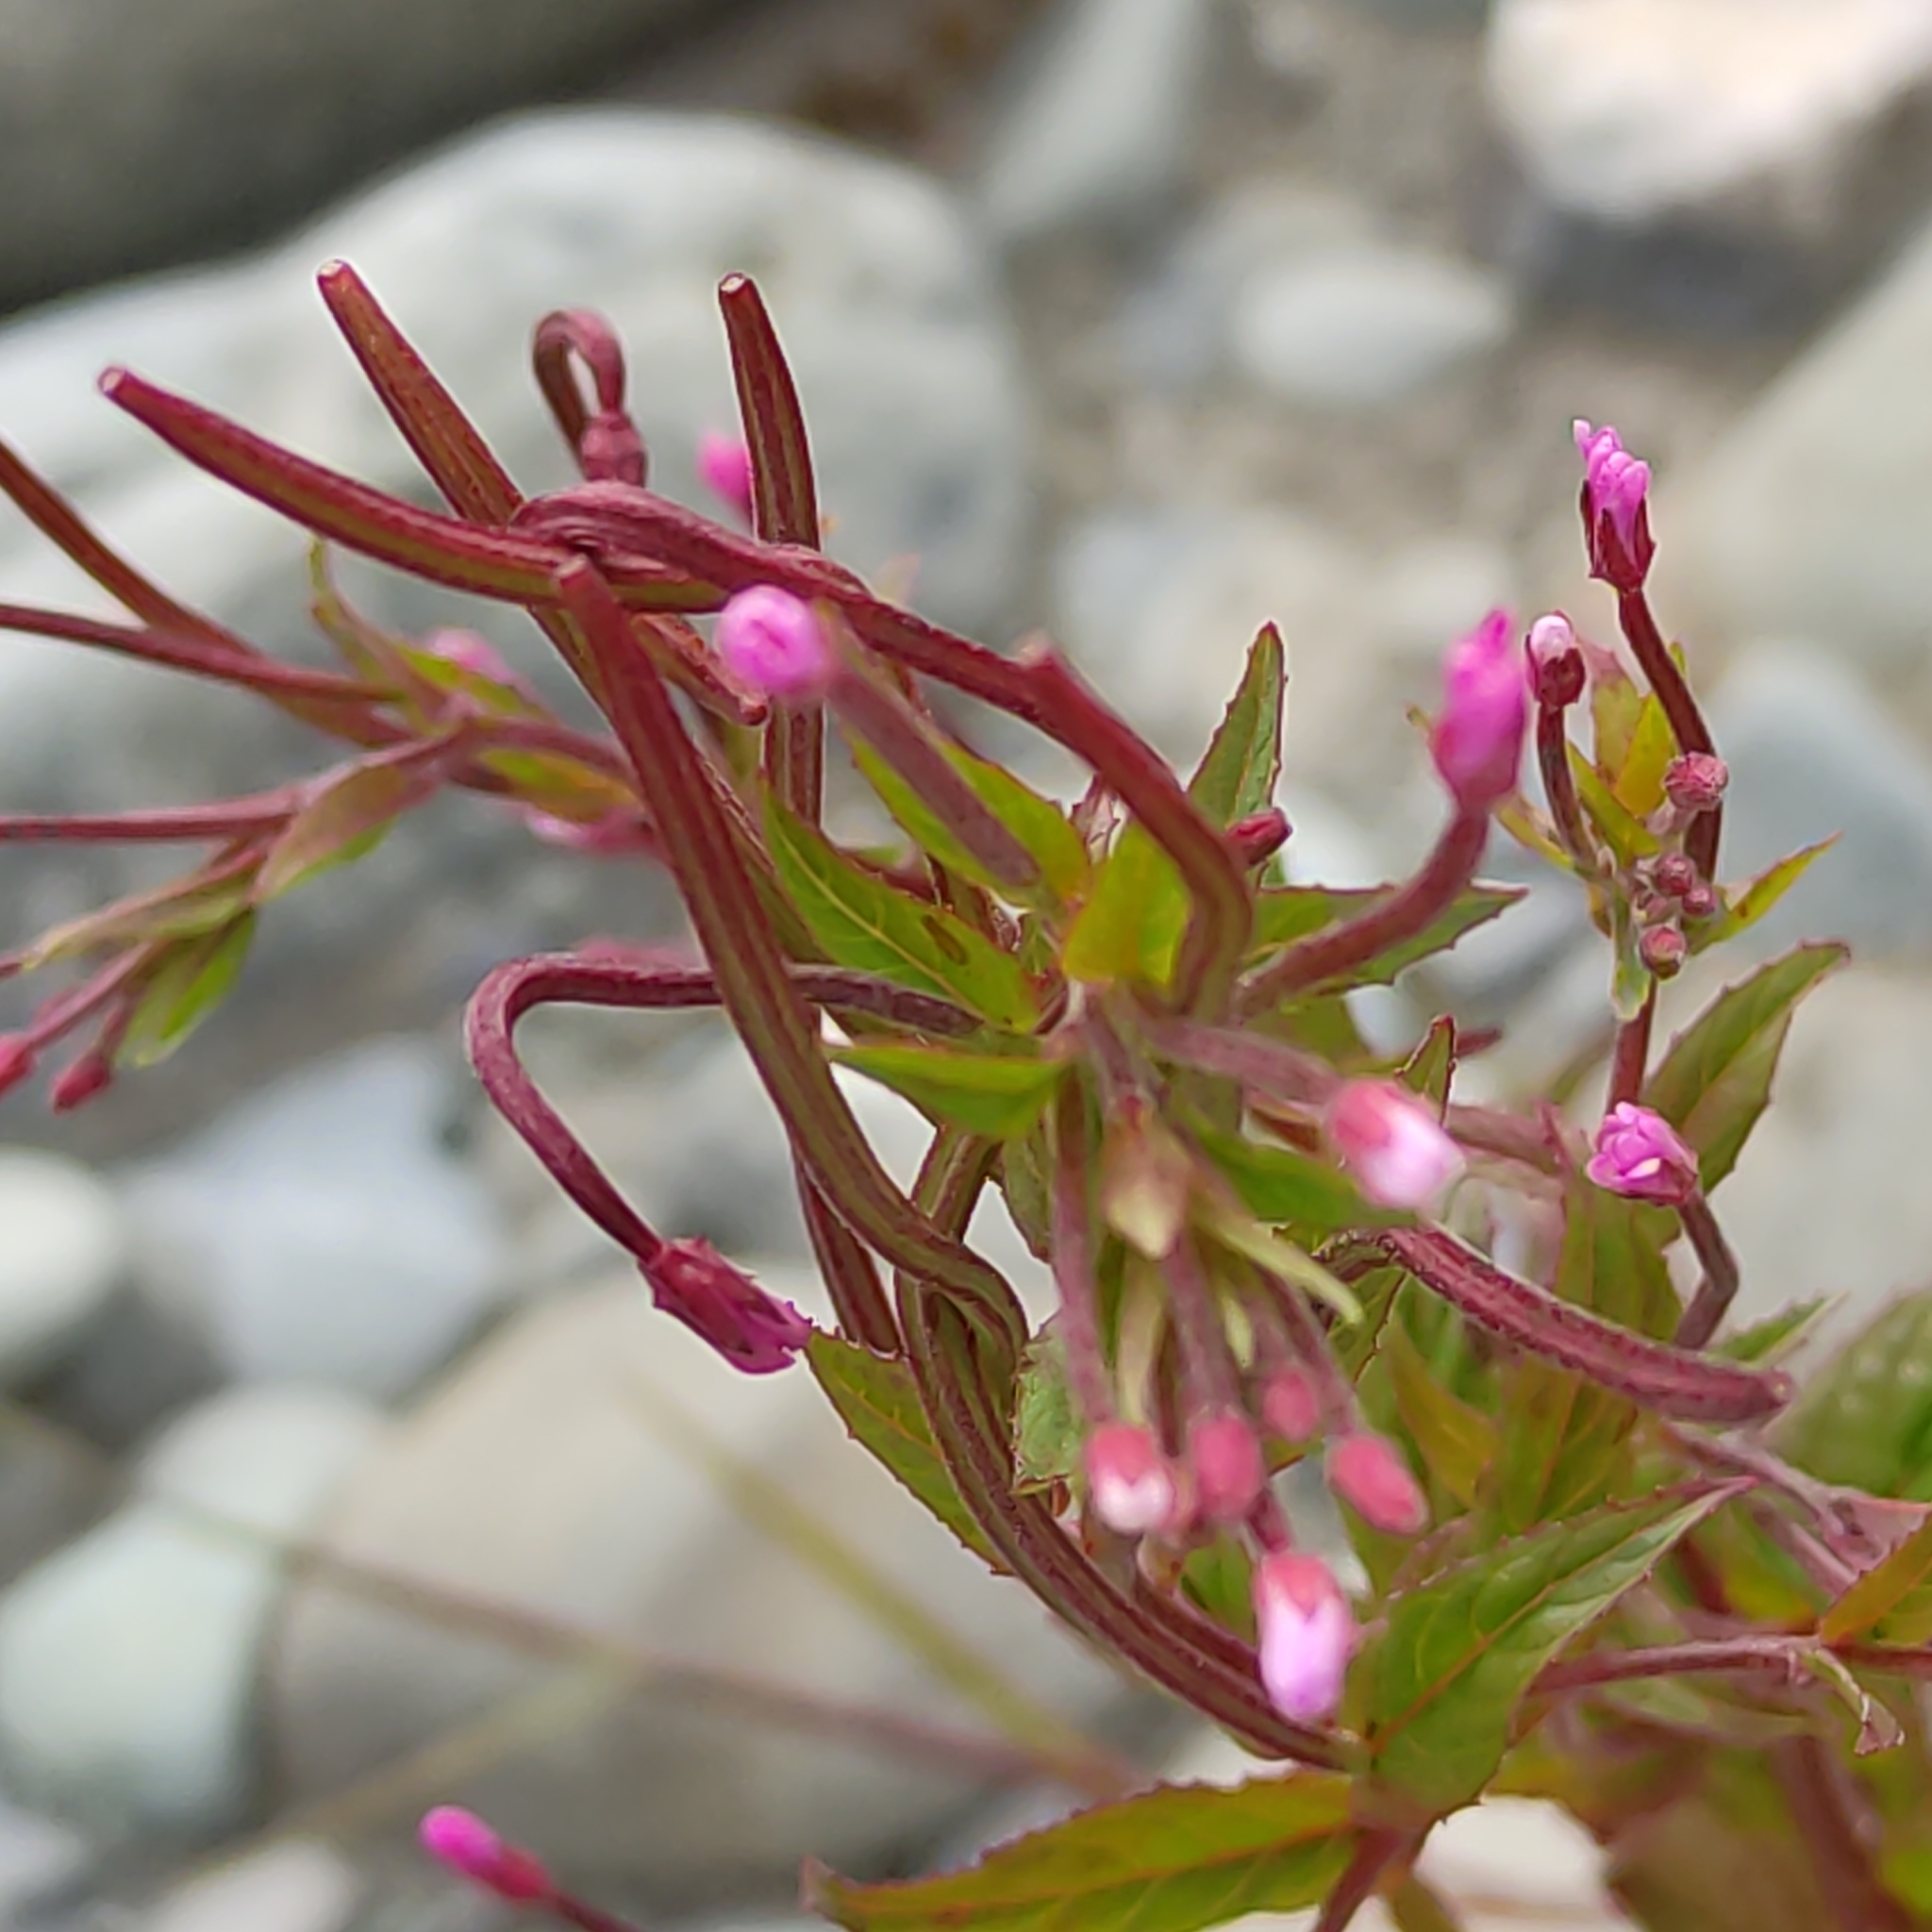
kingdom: Plantae
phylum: Tracheophyta
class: Magnoliopsida
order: Myrtales
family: Onagraceae
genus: Epilobium
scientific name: Epilobium ciliatum
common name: American willowherb
